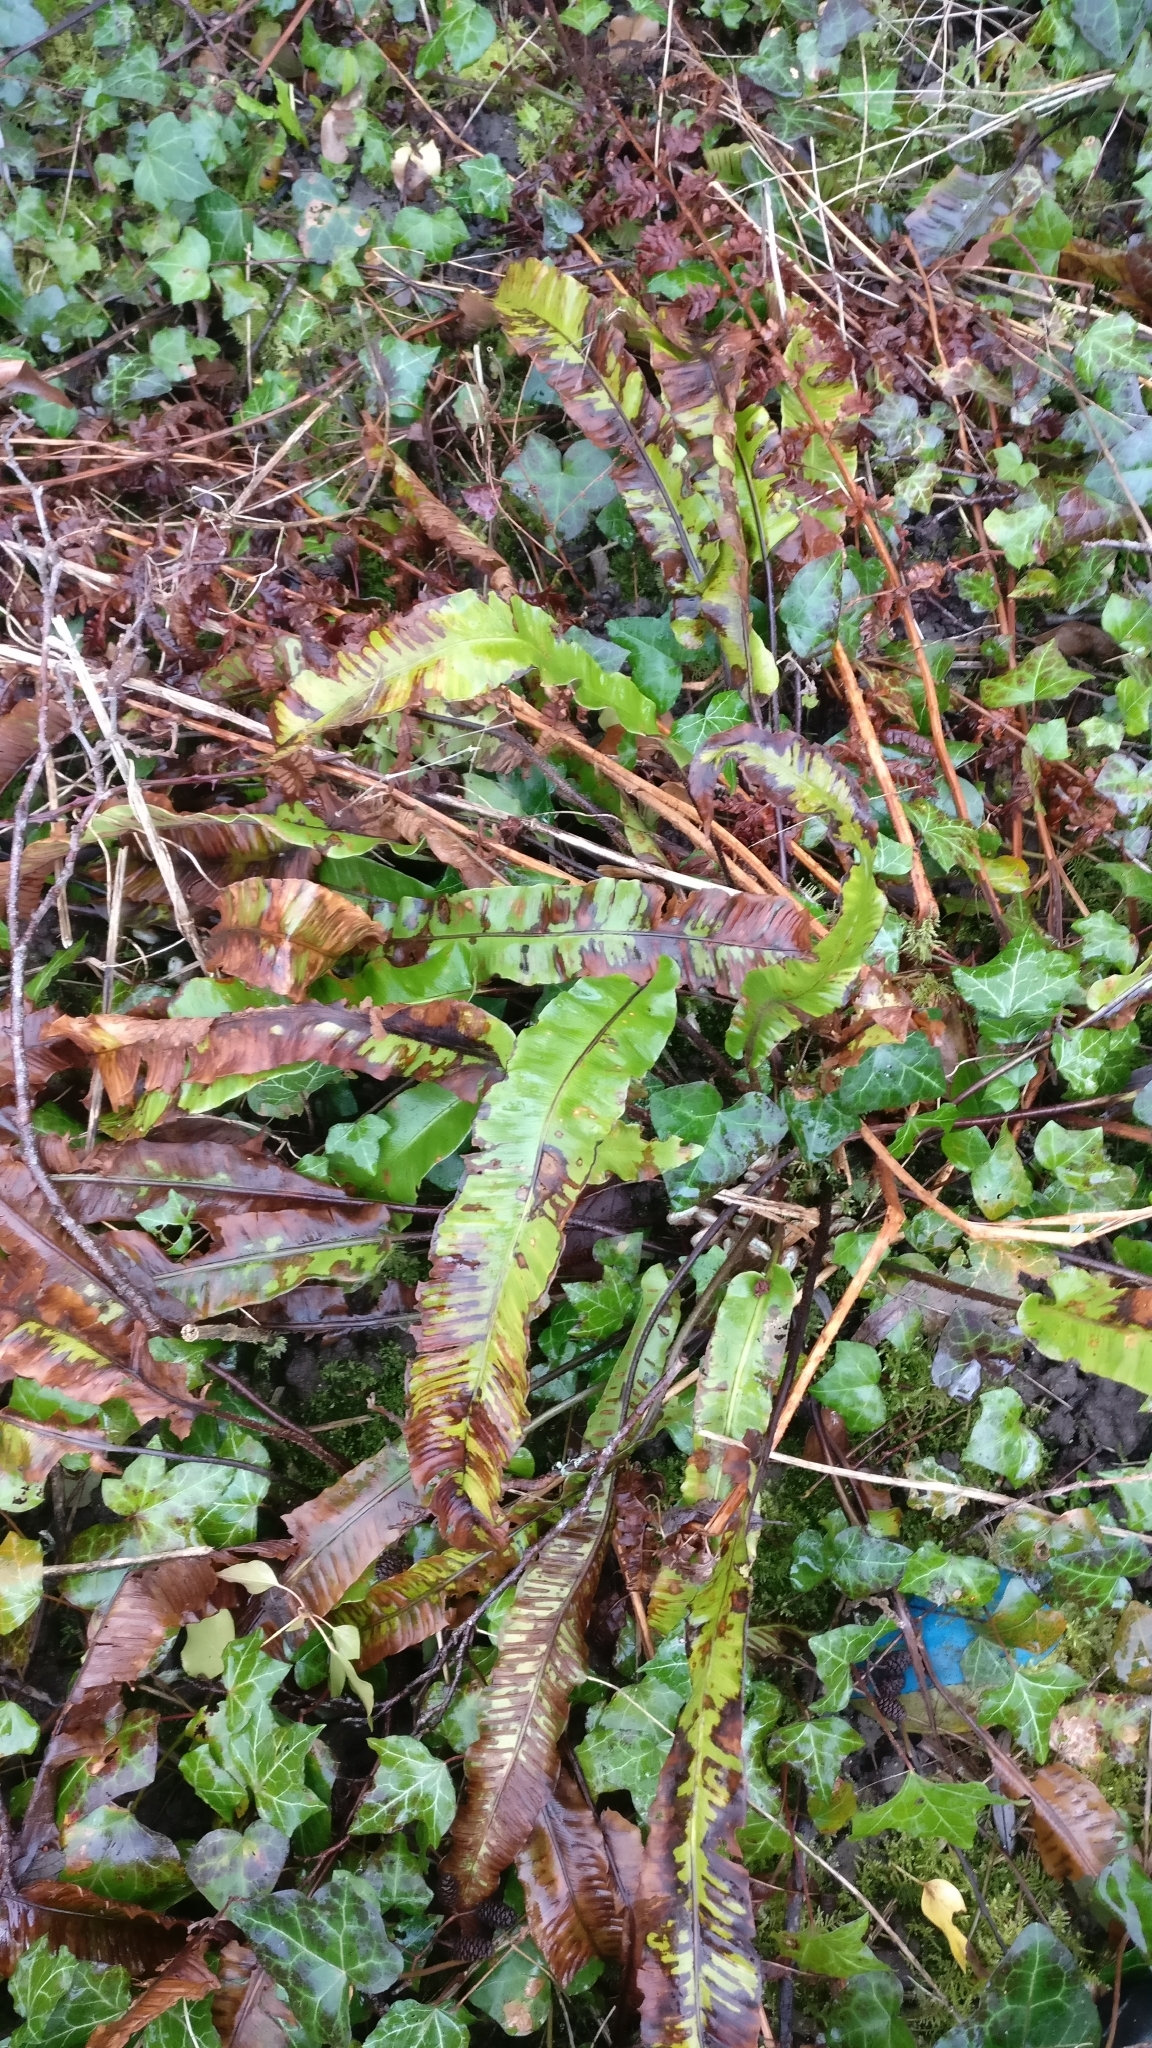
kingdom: Plantae
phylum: Tracheophyta
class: Polypodiopsida
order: Polypodiales
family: Aspleniaceae
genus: Asplenium
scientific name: Asplenium scolopendrium
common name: Hart's-tongue fern
